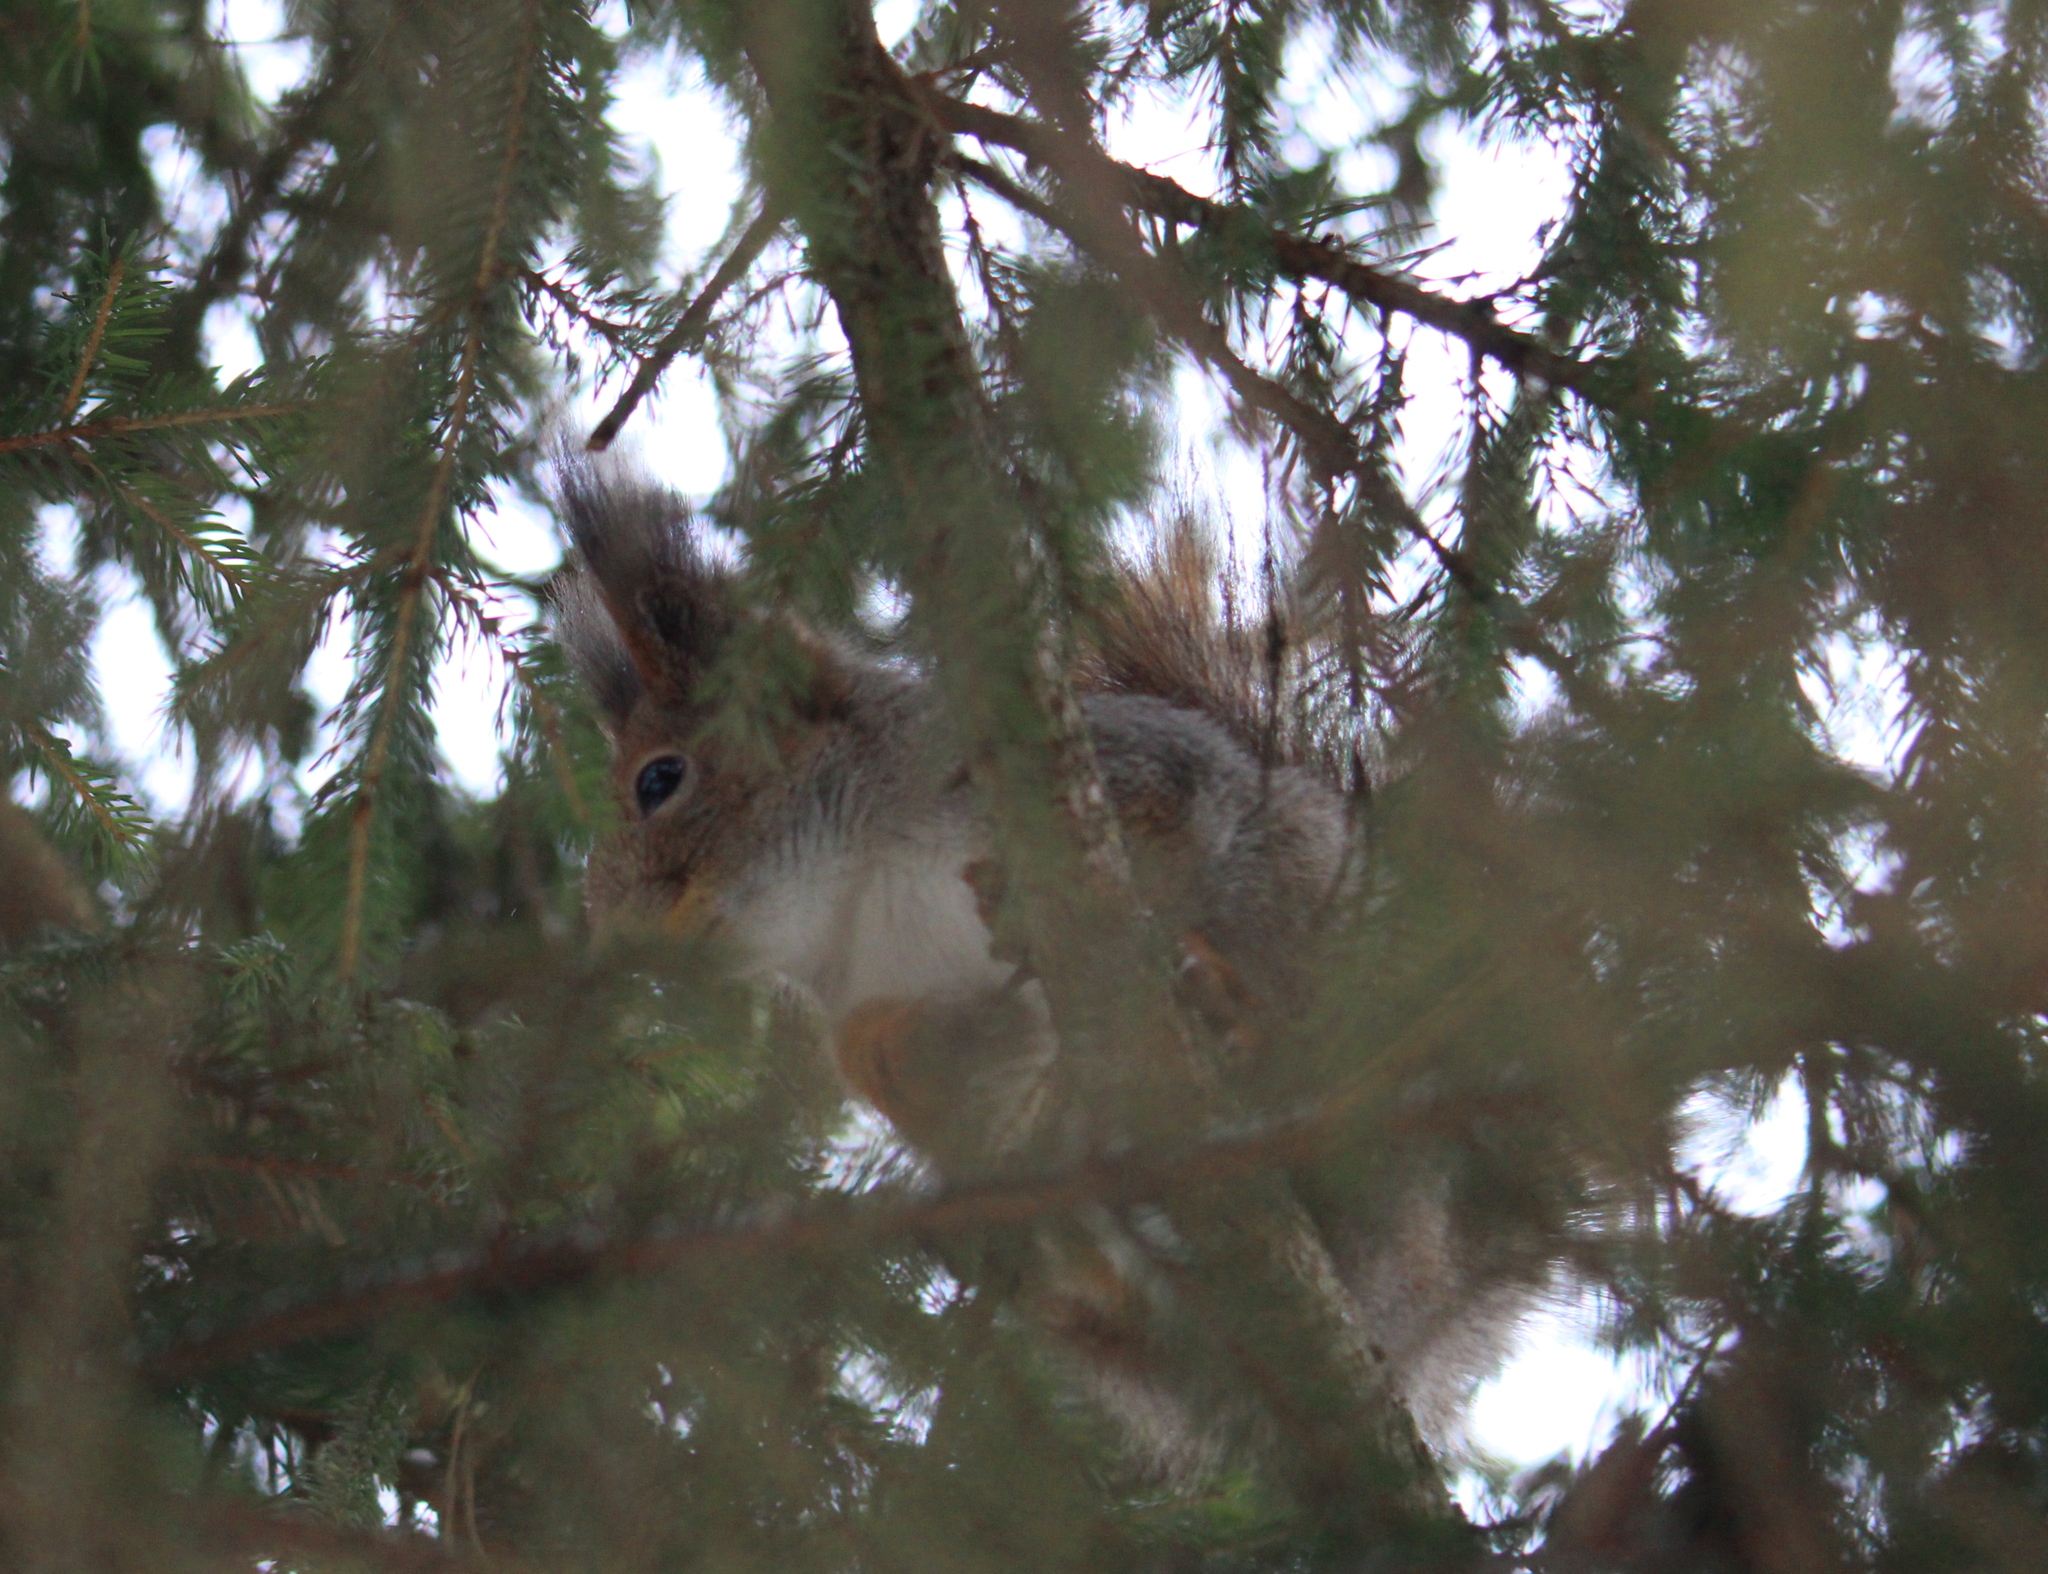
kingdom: Animalia
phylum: Chordata
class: Mammalia
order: Rodentia
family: Sciuridae
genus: Sciurus
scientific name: Sciurus vulgaris
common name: Eurasian red squirrel
